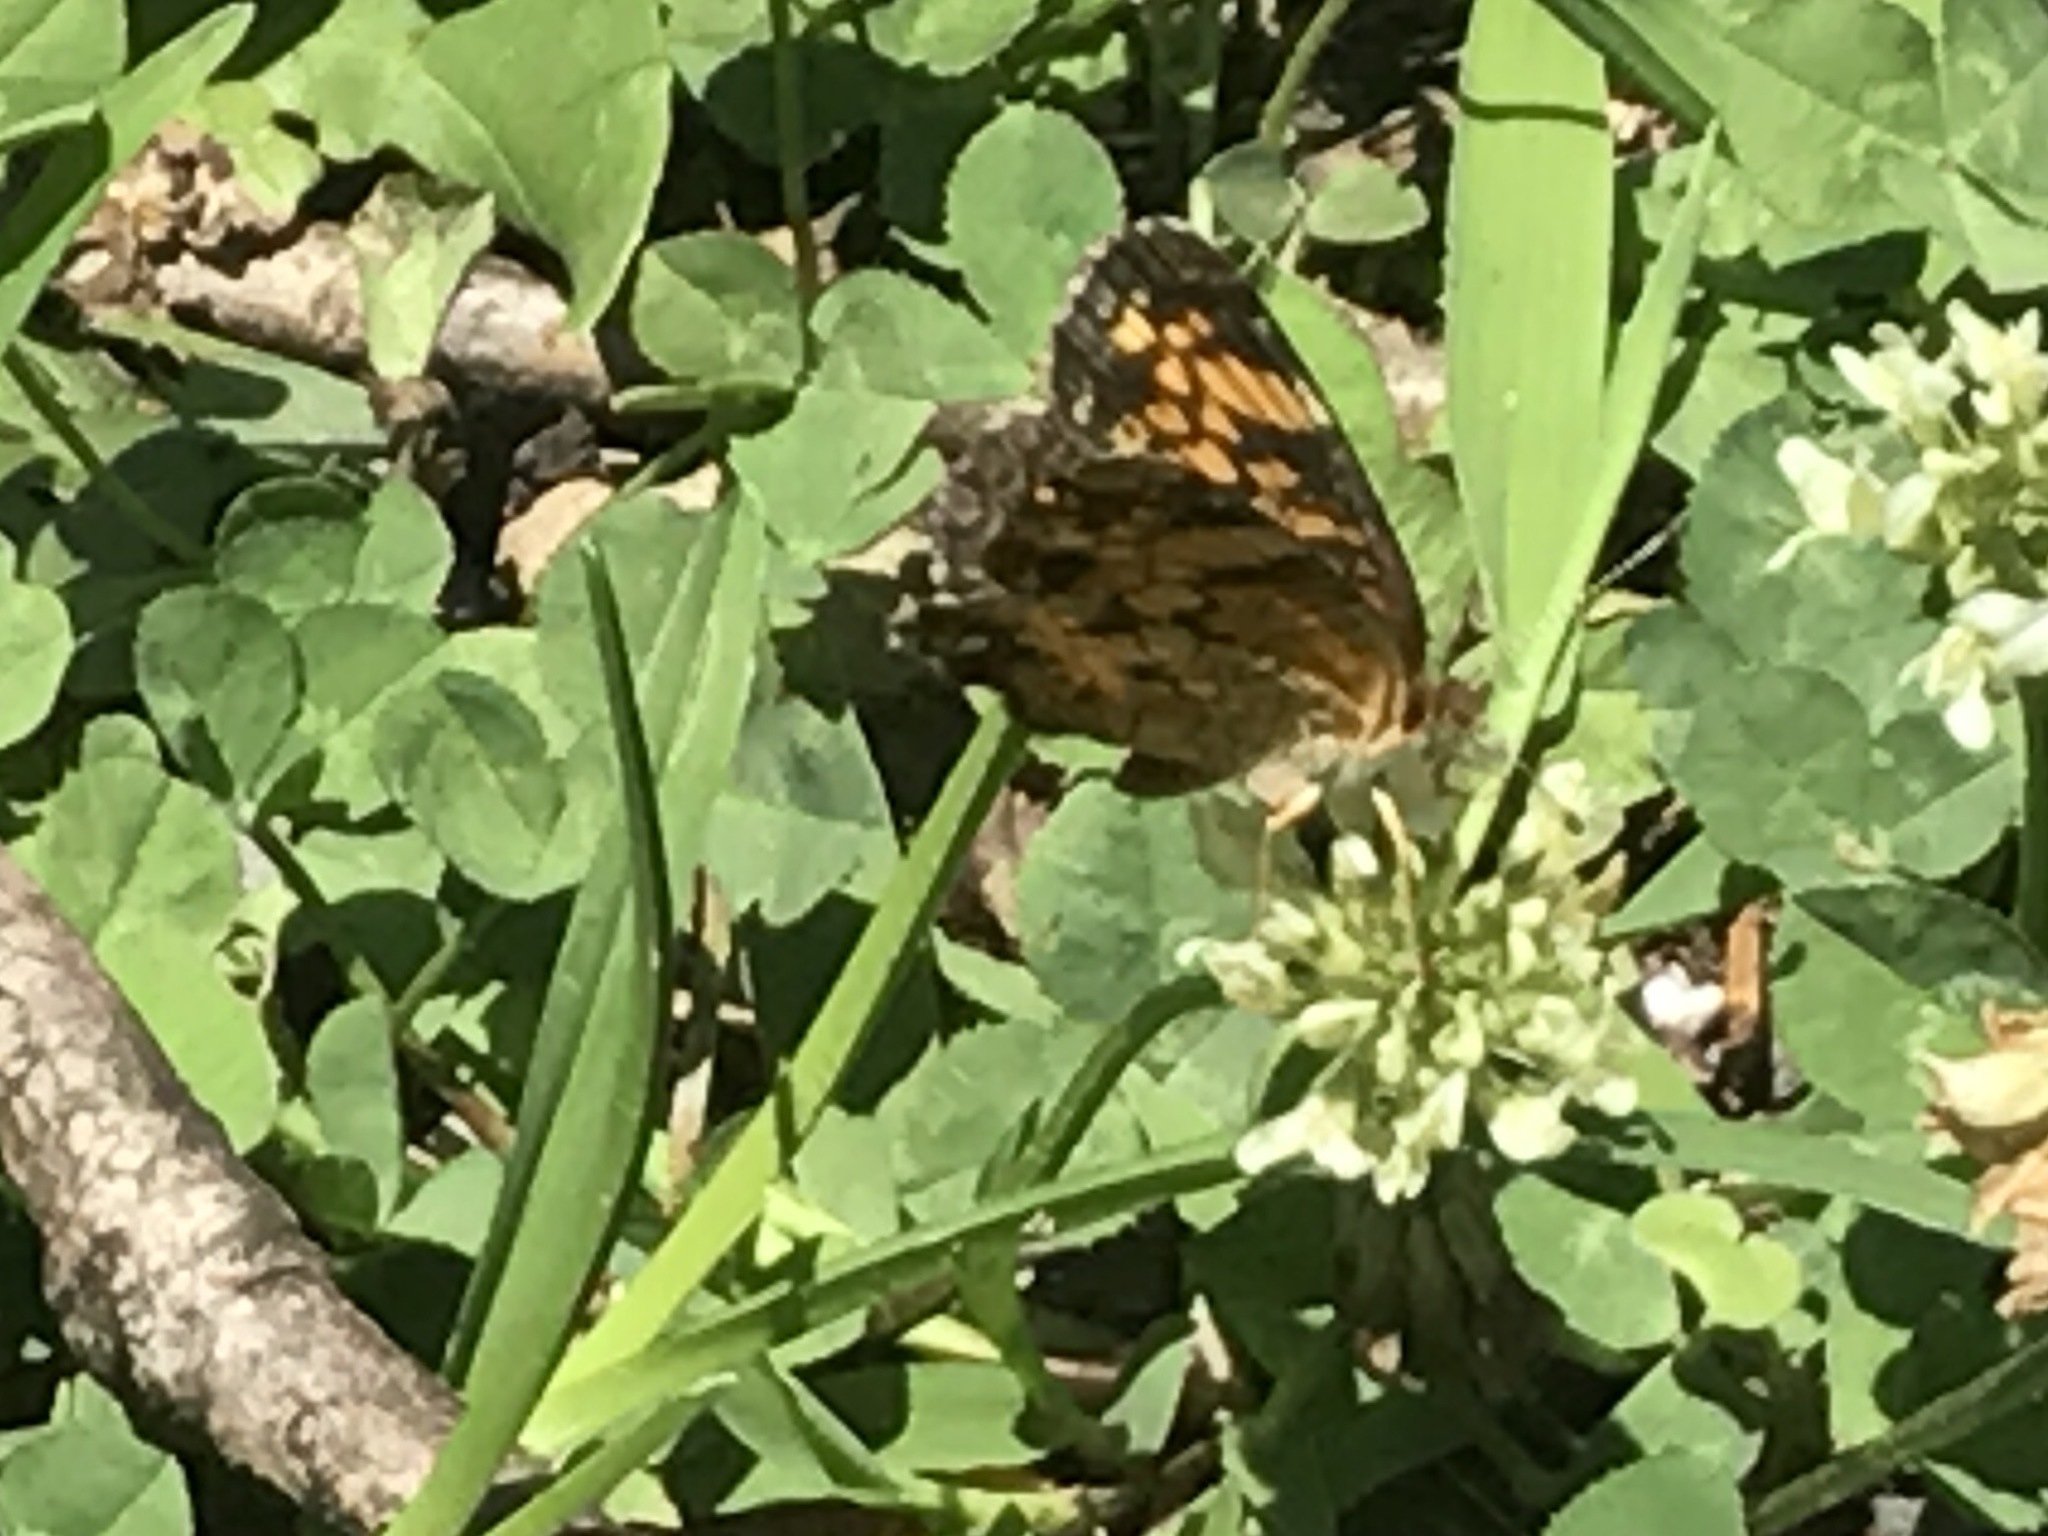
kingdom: Animalia
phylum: Arthropoda
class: Insecta
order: Lepidoptera
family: Nymphalidae
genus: Phyciodes
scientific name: Phyciodes tharos
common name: Pearl crescent
